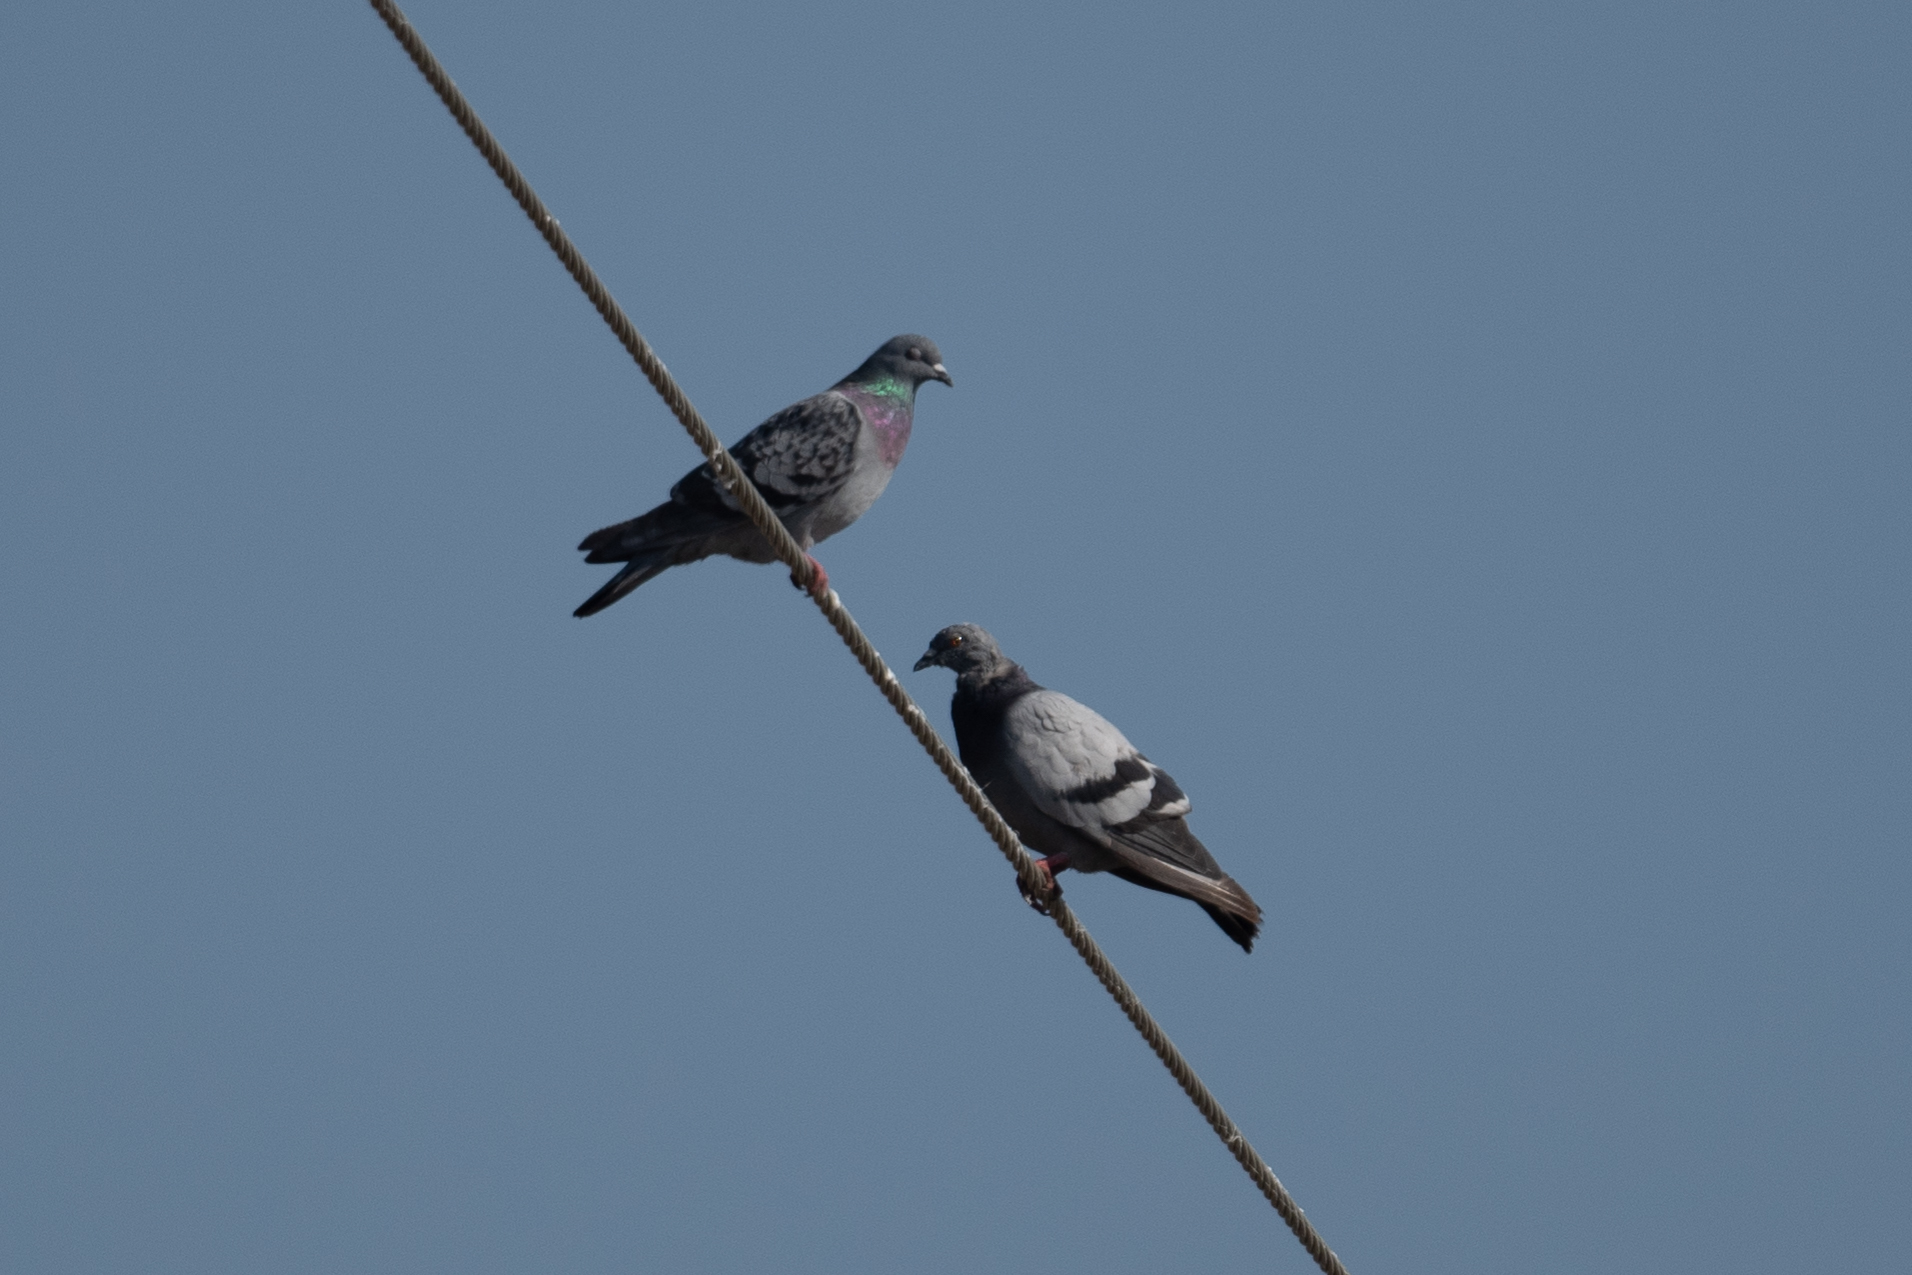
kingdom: Animalia
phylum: Chordata
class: Aves
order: Columbiformes
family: Columbidae
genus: Columba
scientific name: Columba livia
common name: Rock pigeon
